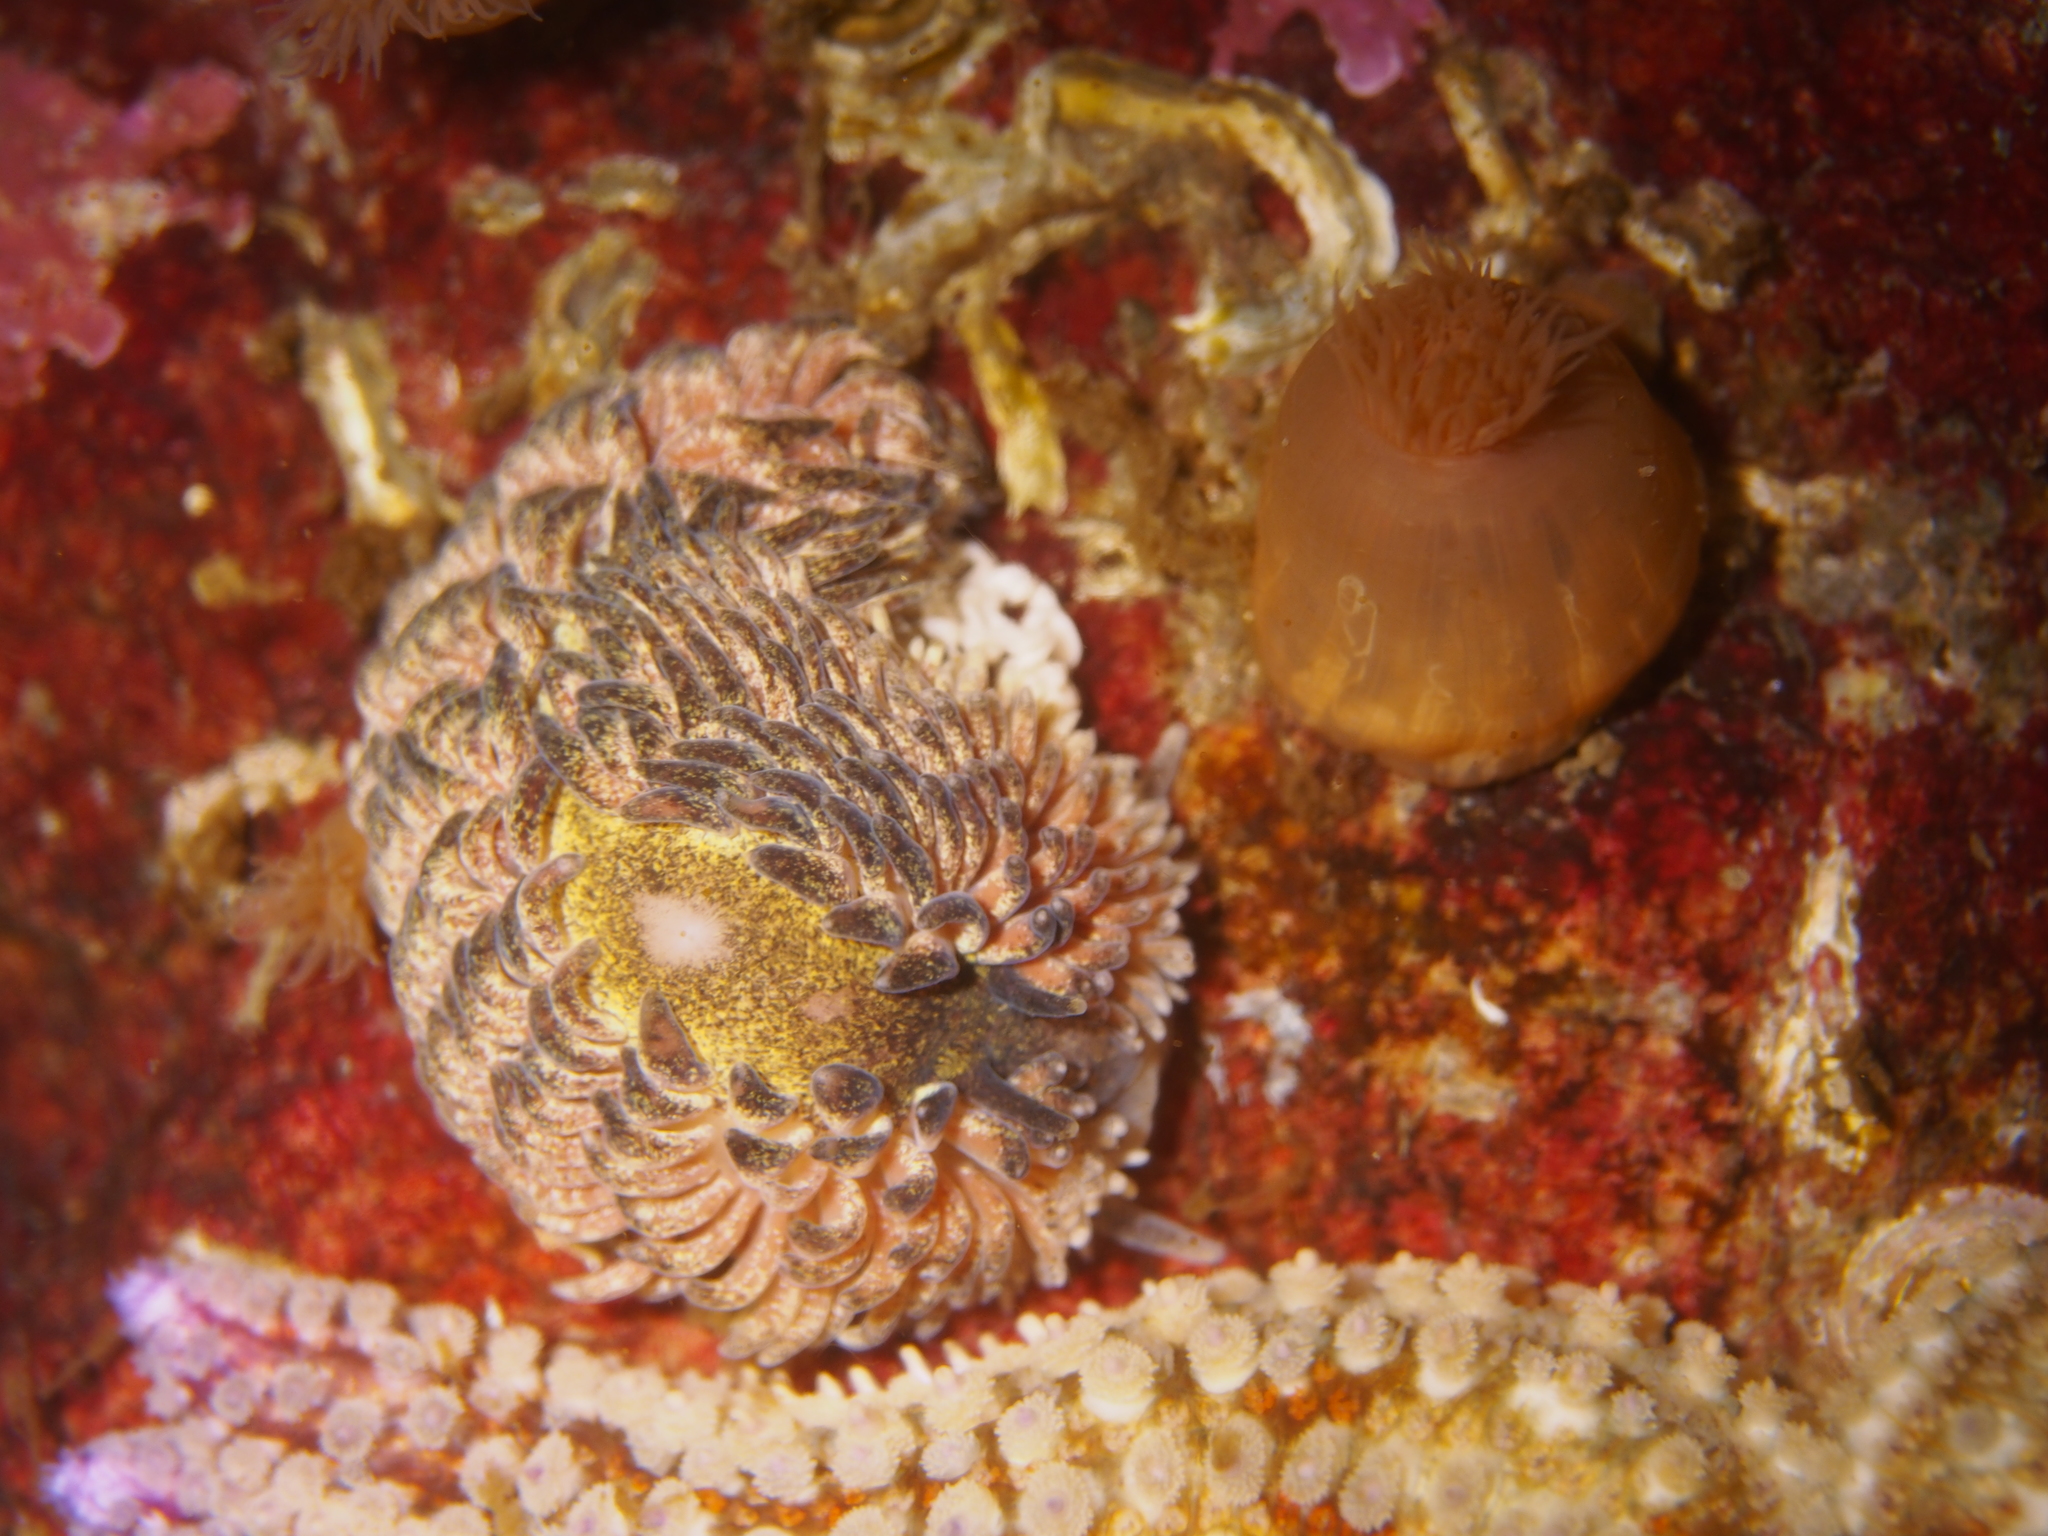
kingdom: Animalia
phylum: Mollusca
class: Gastropoda
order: Nudibranchia
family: Aeolidiidae
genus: Aeolidia
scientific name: Aeolidia papillosa
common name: Common grey sea slug
